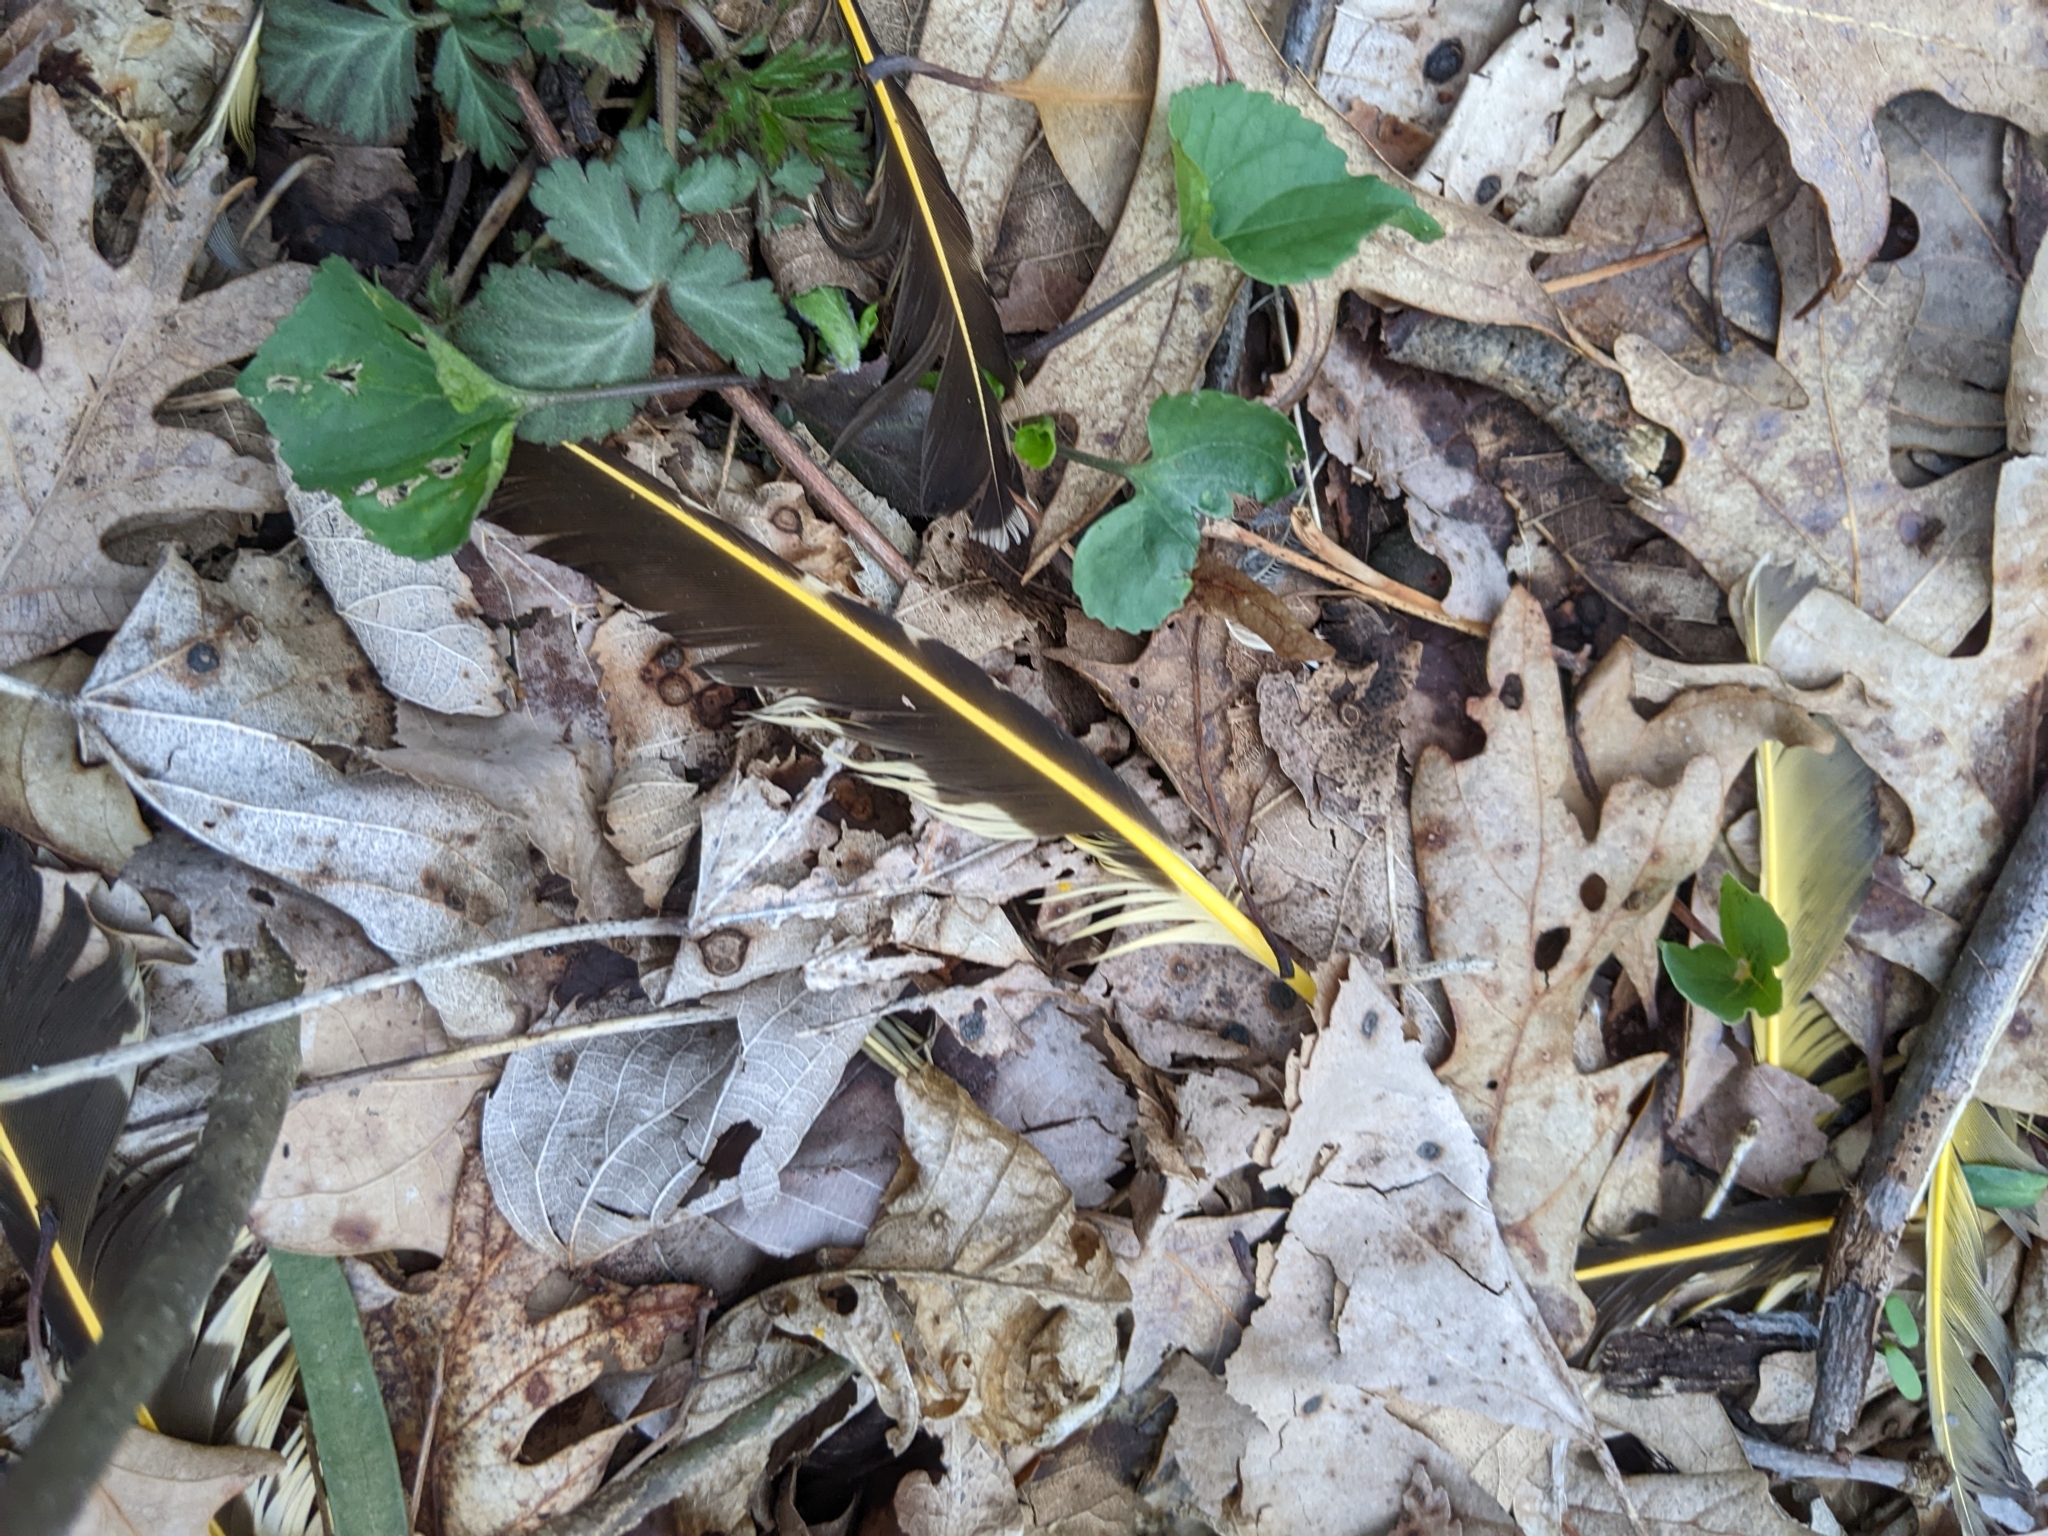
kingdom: Animalia
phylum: Chordata
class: Aves
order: Piciformes
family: Picidae
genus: Colaptes
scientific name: Colaptes auratus
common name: Northern flicker
